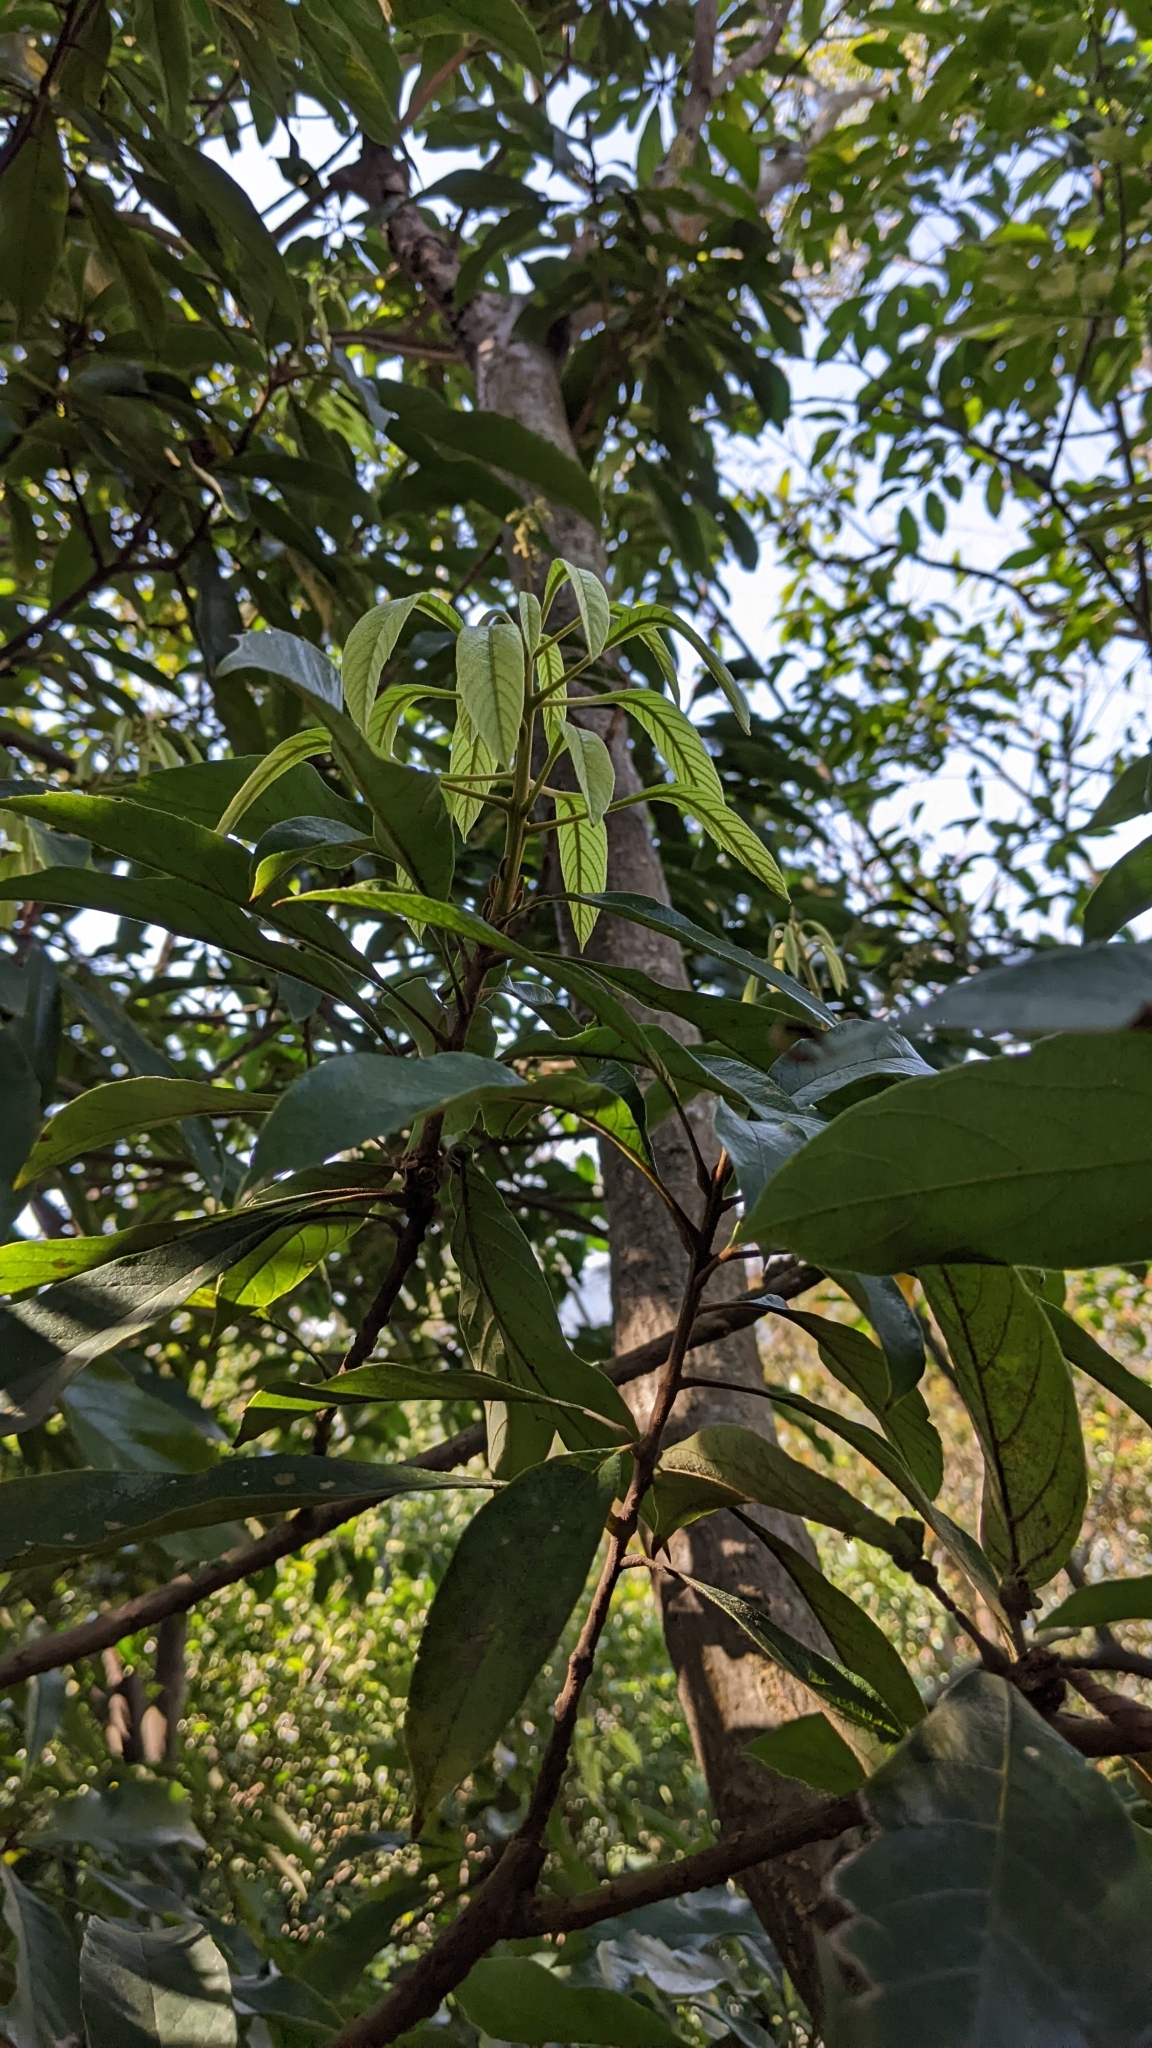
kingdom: Plantae
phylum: Tracheophyta
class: Magnoliopsida
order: Proteales
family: Sabiaceae
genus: Meliosma
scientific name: Meliosma rigida
